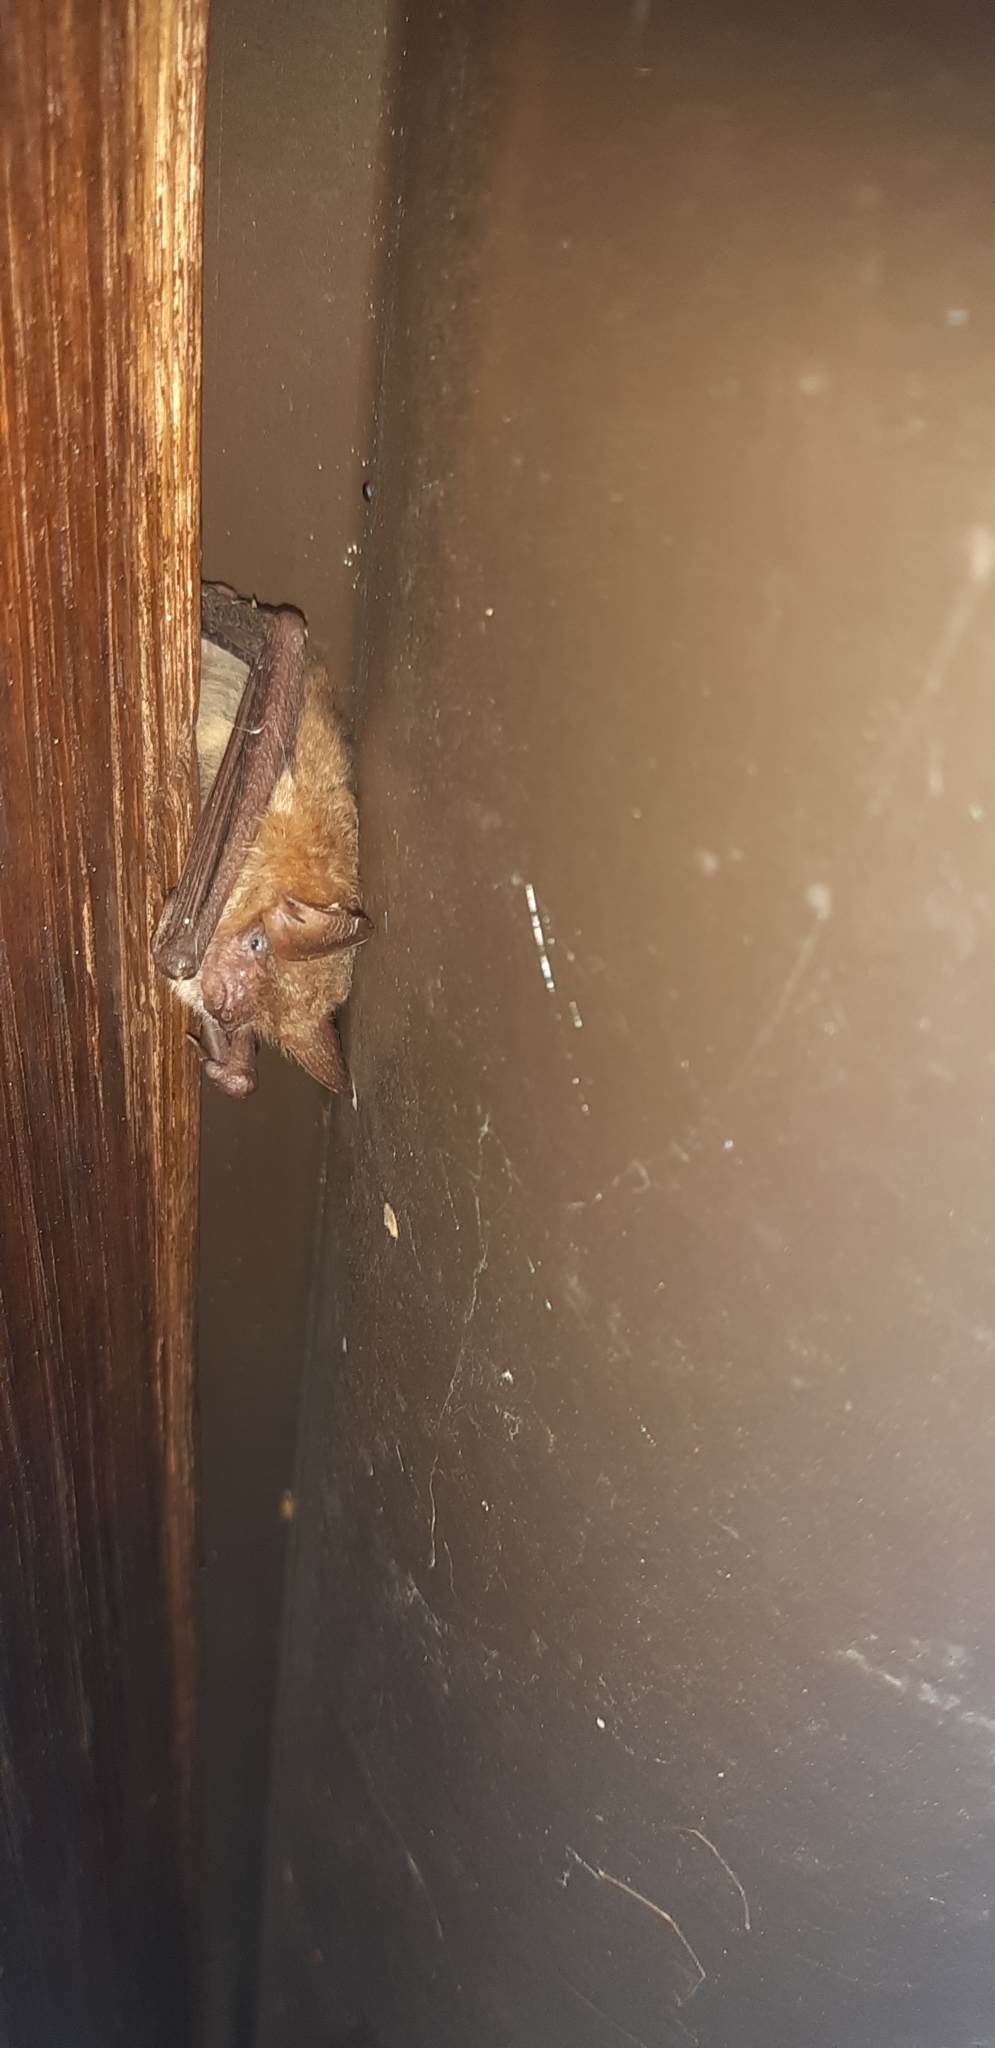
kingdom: Animalia
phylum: Chordata
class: Mammalia
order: Chiroptera
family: Vespertilionidae
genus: Myotis
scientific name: Myotis emarginatus
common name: Geoffroy's bat
